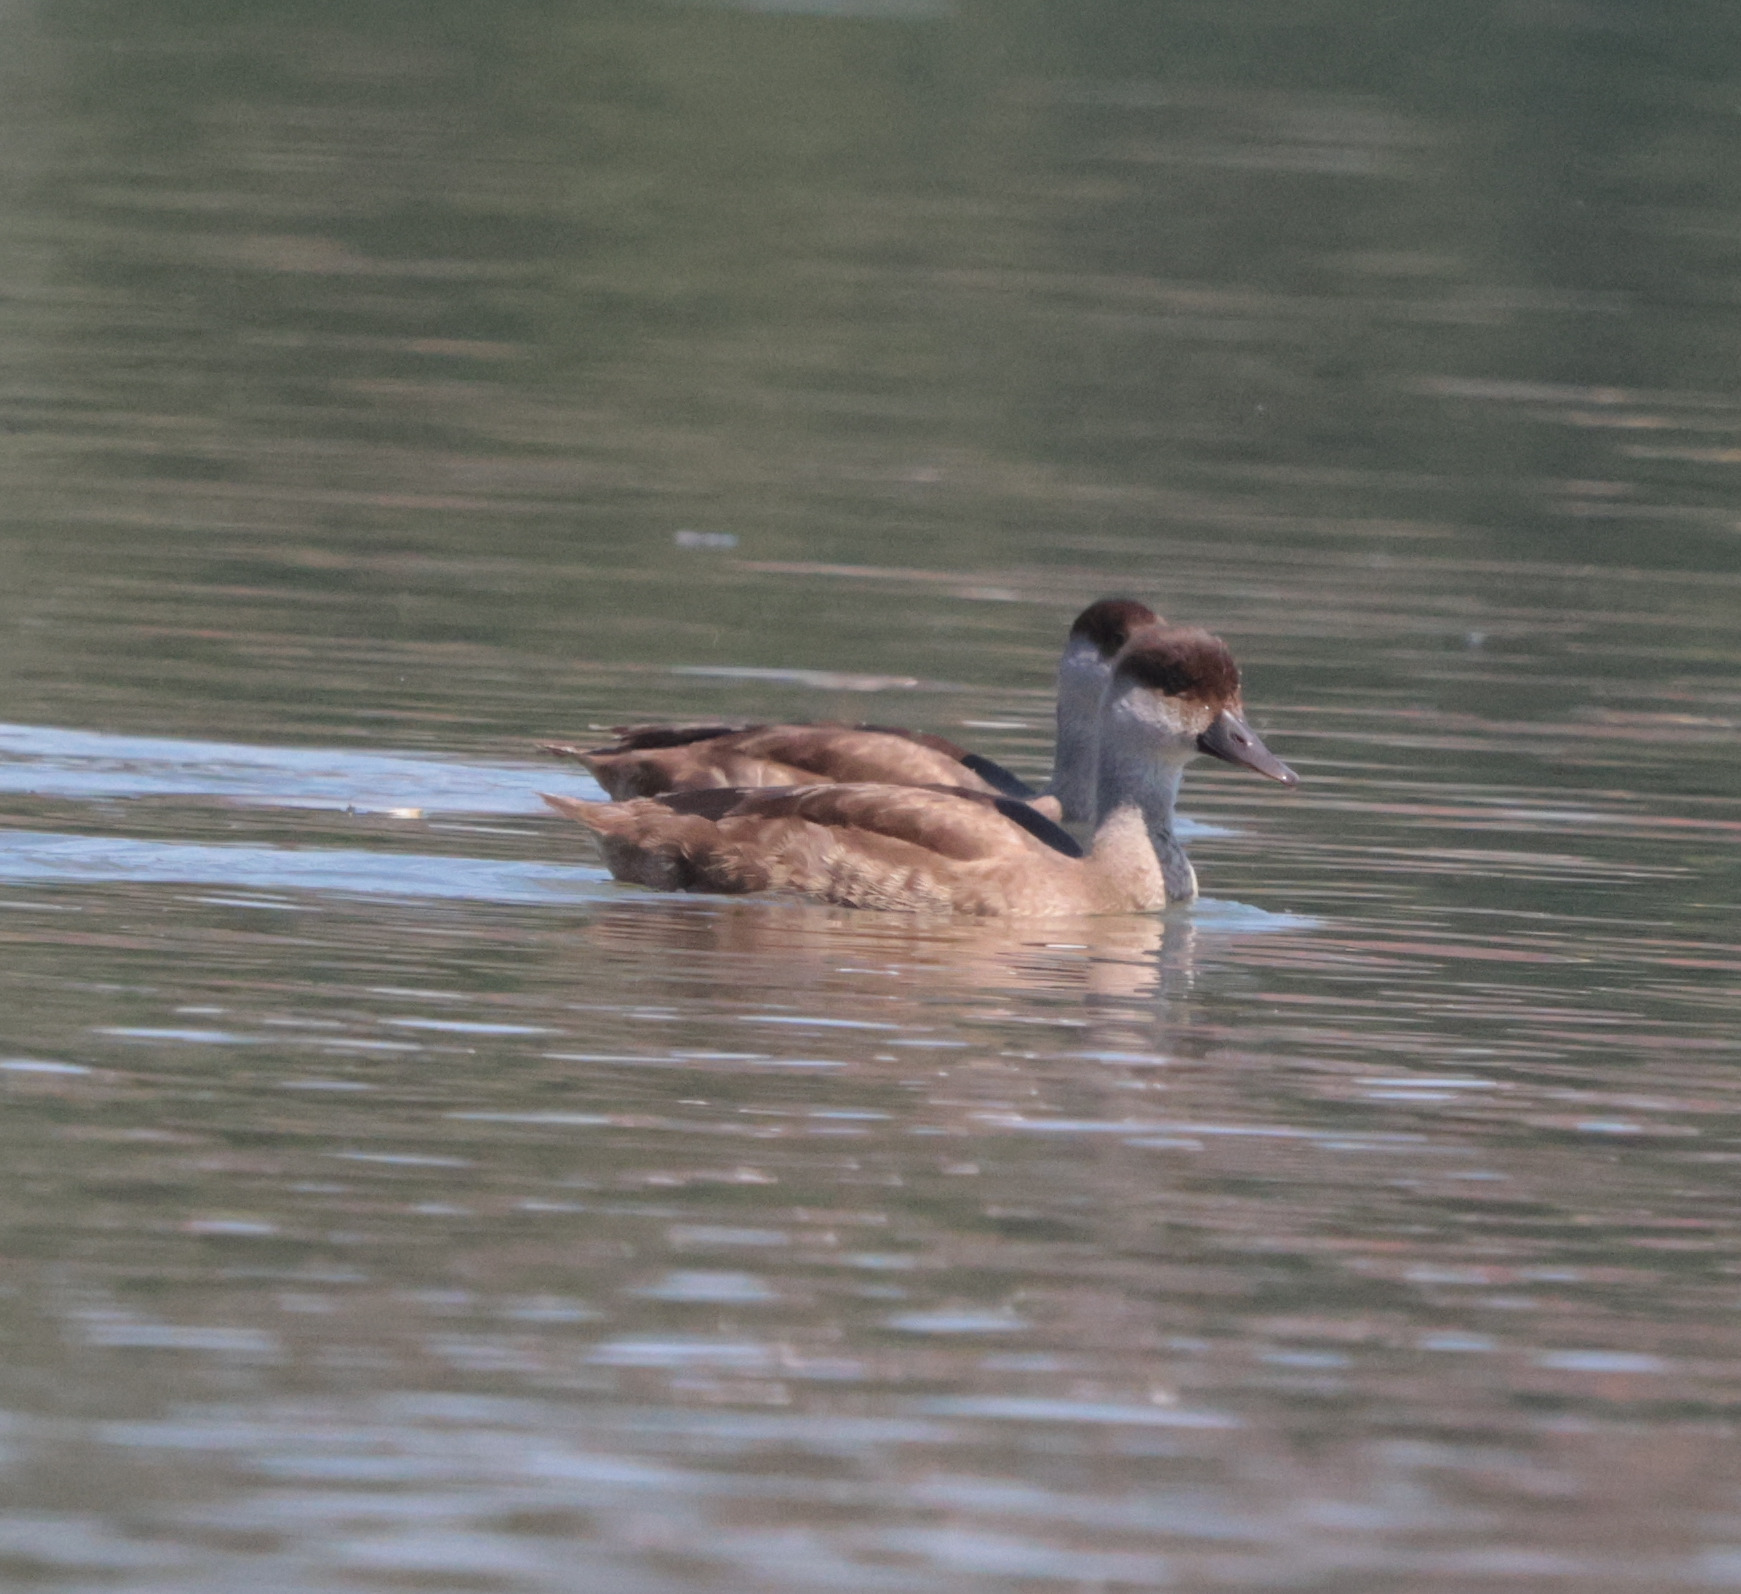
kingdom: Animalia
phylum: Chordata
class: Aves
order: Anseriformes
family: Anatidae
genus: Netta
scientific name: Netta rufina
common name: Red-crested pochard
